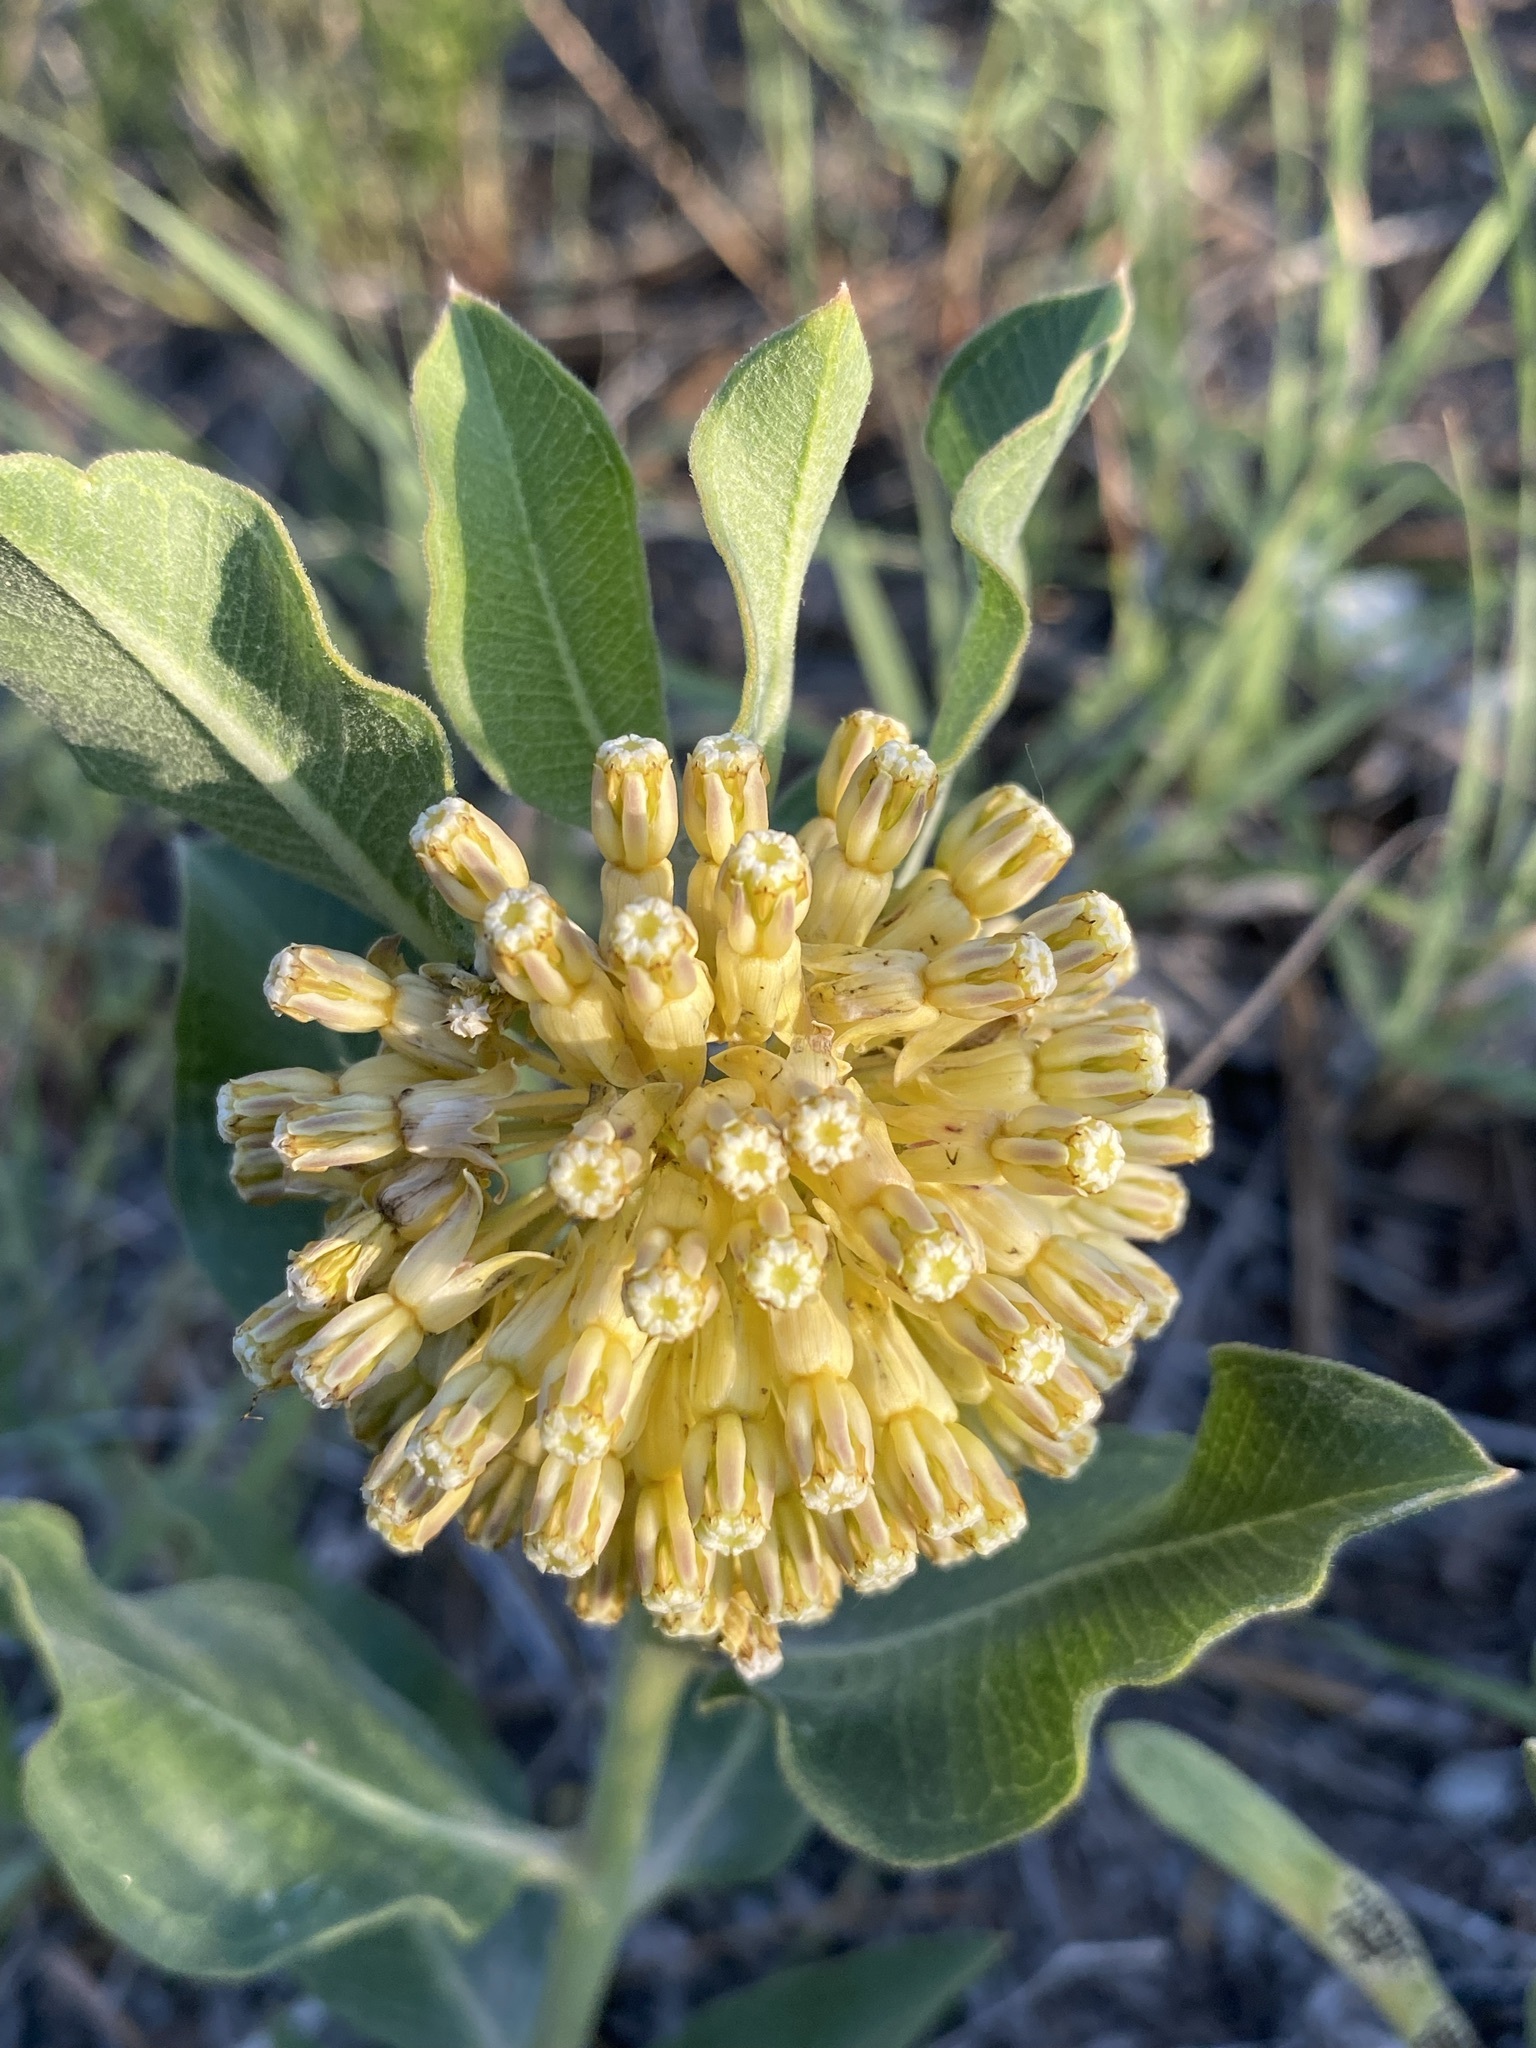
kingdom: Plantae
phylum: Tracheophyta
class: Magnoliopsida
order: Gentianales
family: Apocynaceae
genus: Asclepias
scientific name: Asclepias viridiflora
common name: Green comet milkweed
